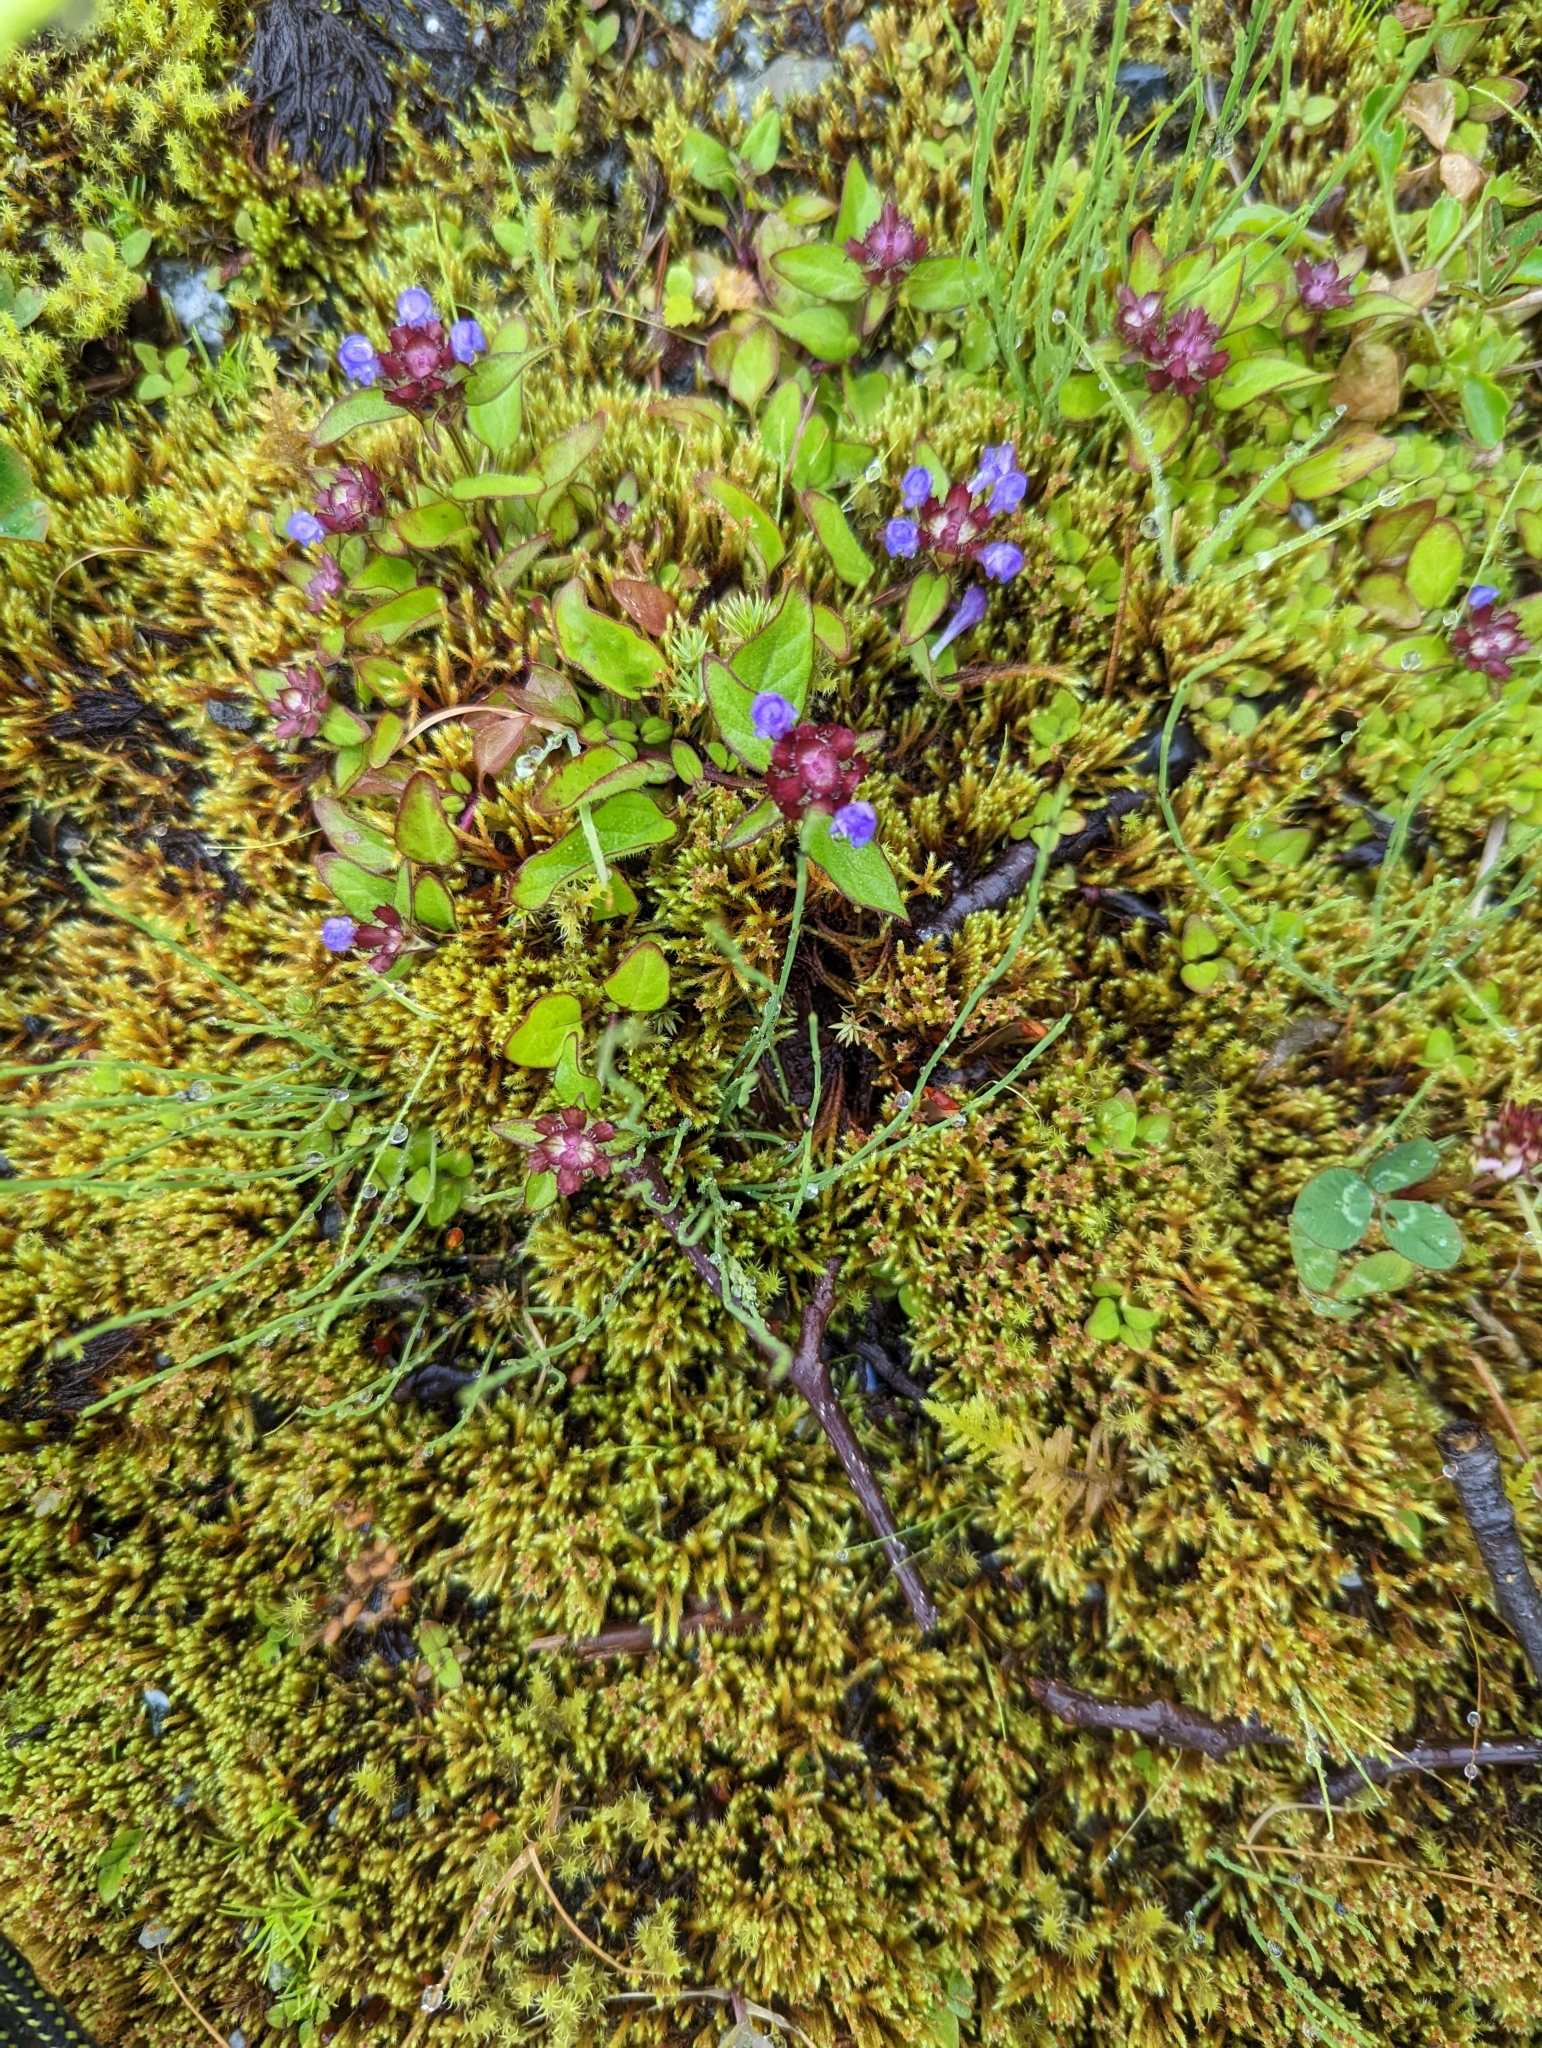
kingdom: Plantae
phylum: Tracheophyta
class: Magnoliopsida
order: Lamiales
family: Lamiaceae
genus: Prunella
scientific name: Prunella vulgaris
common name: Heal-all
